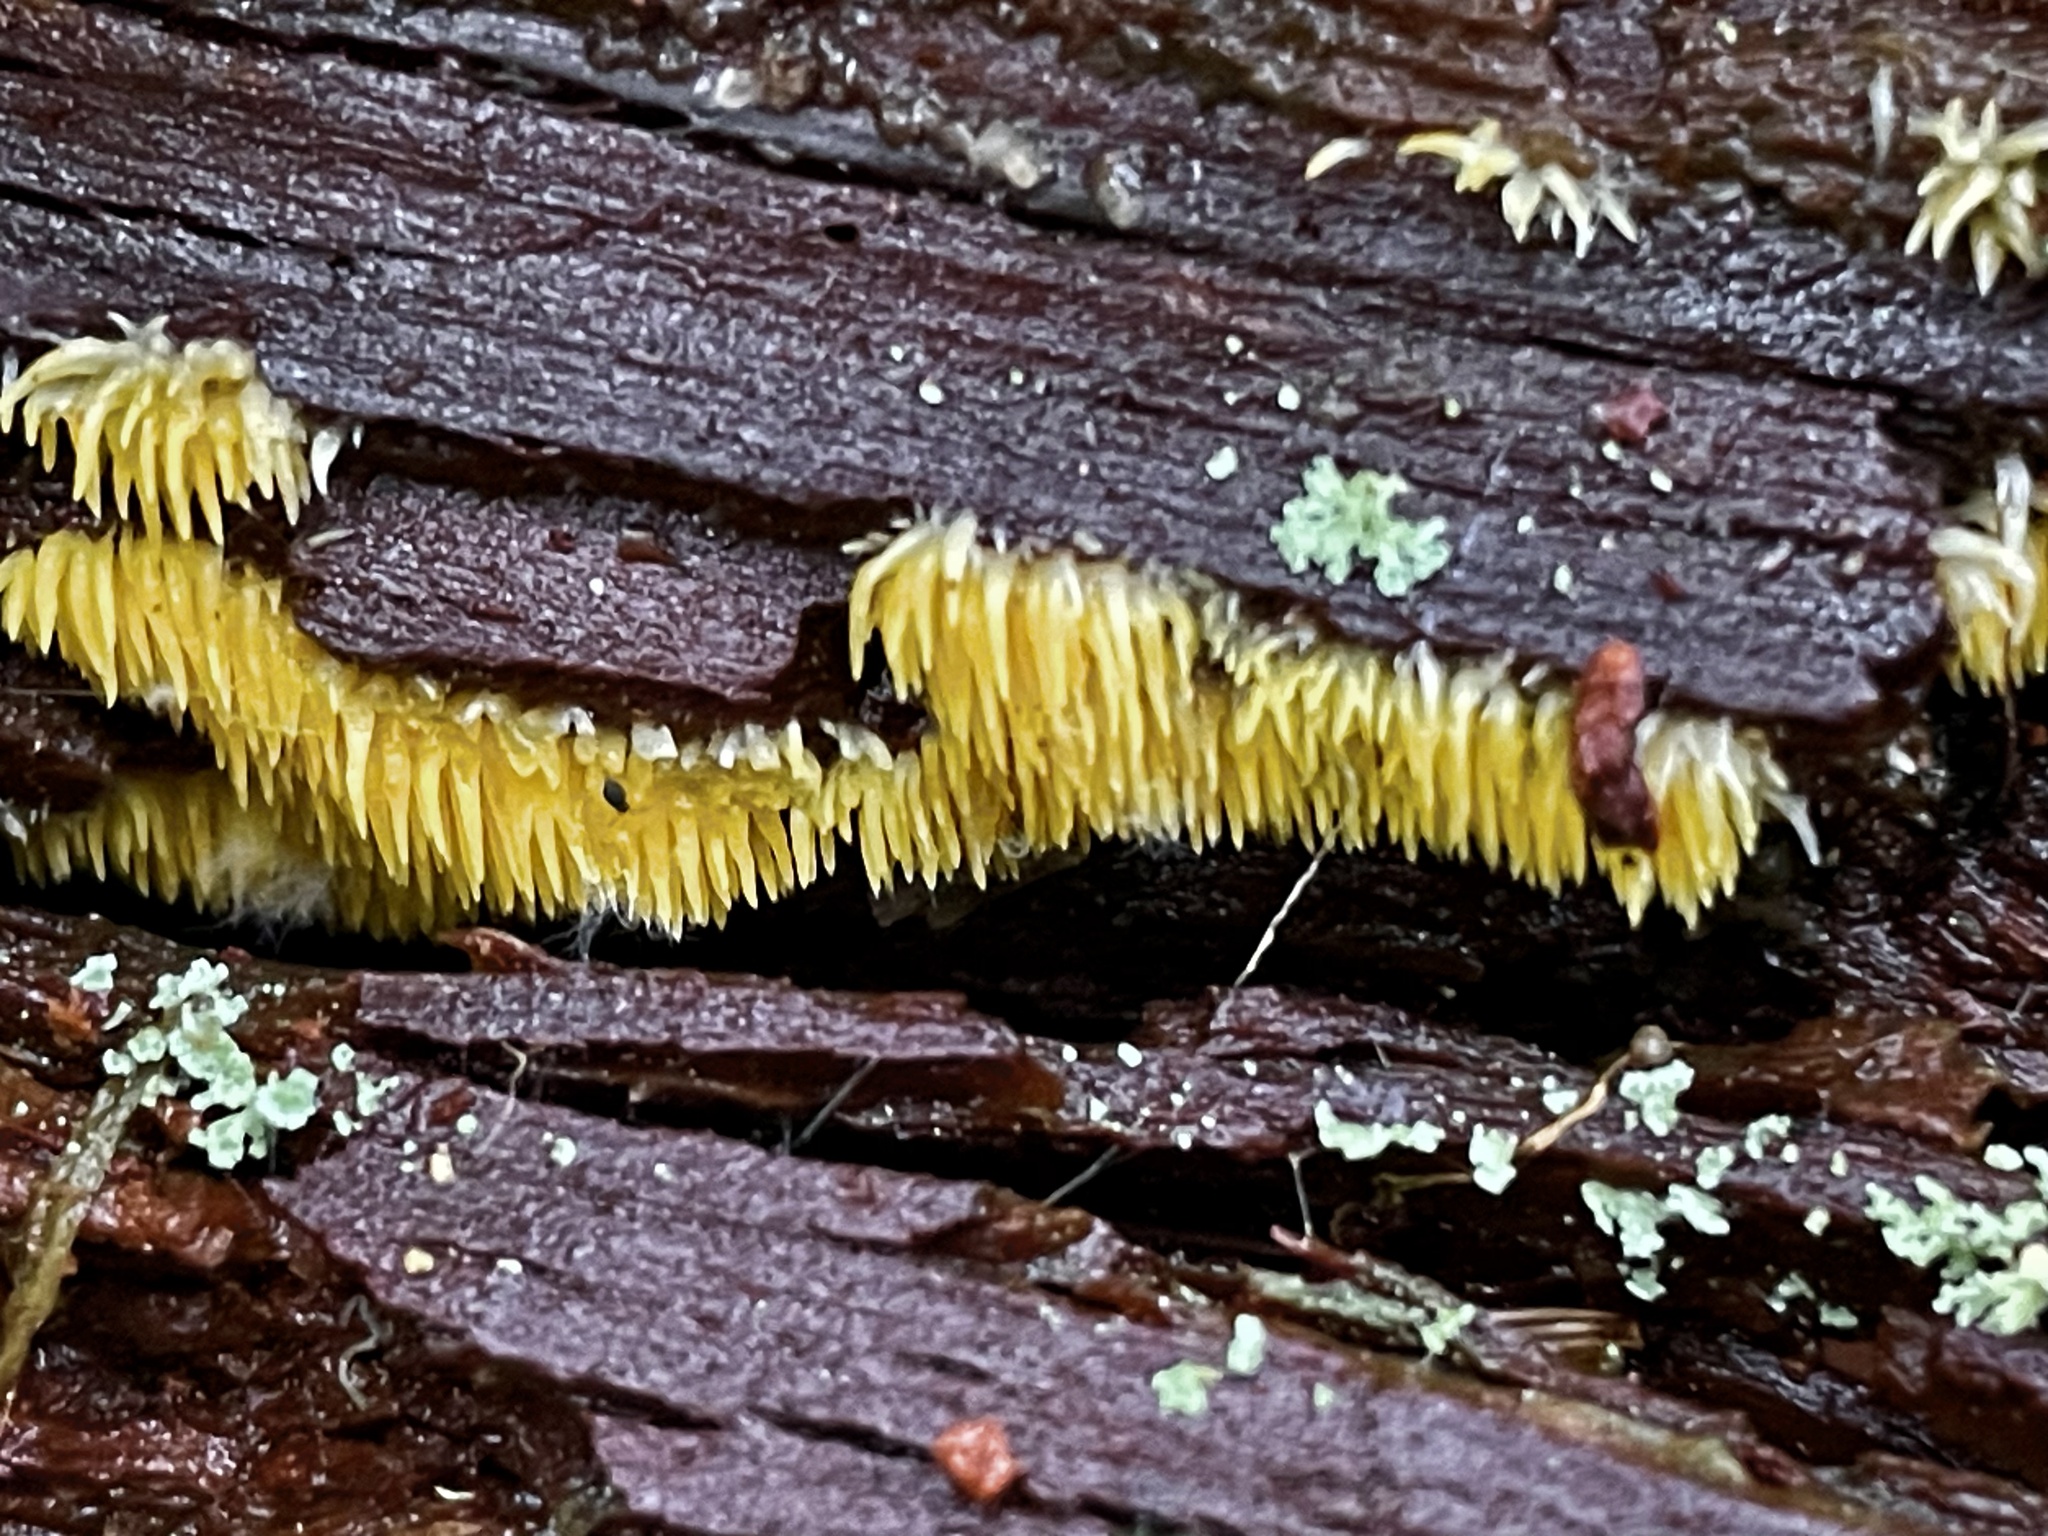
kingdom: Fungi
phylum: Basidiomycota
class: Agaricomycetes
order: Agaricales
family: Clavariaceae
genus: Mucronella
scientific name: Mucronella flava
